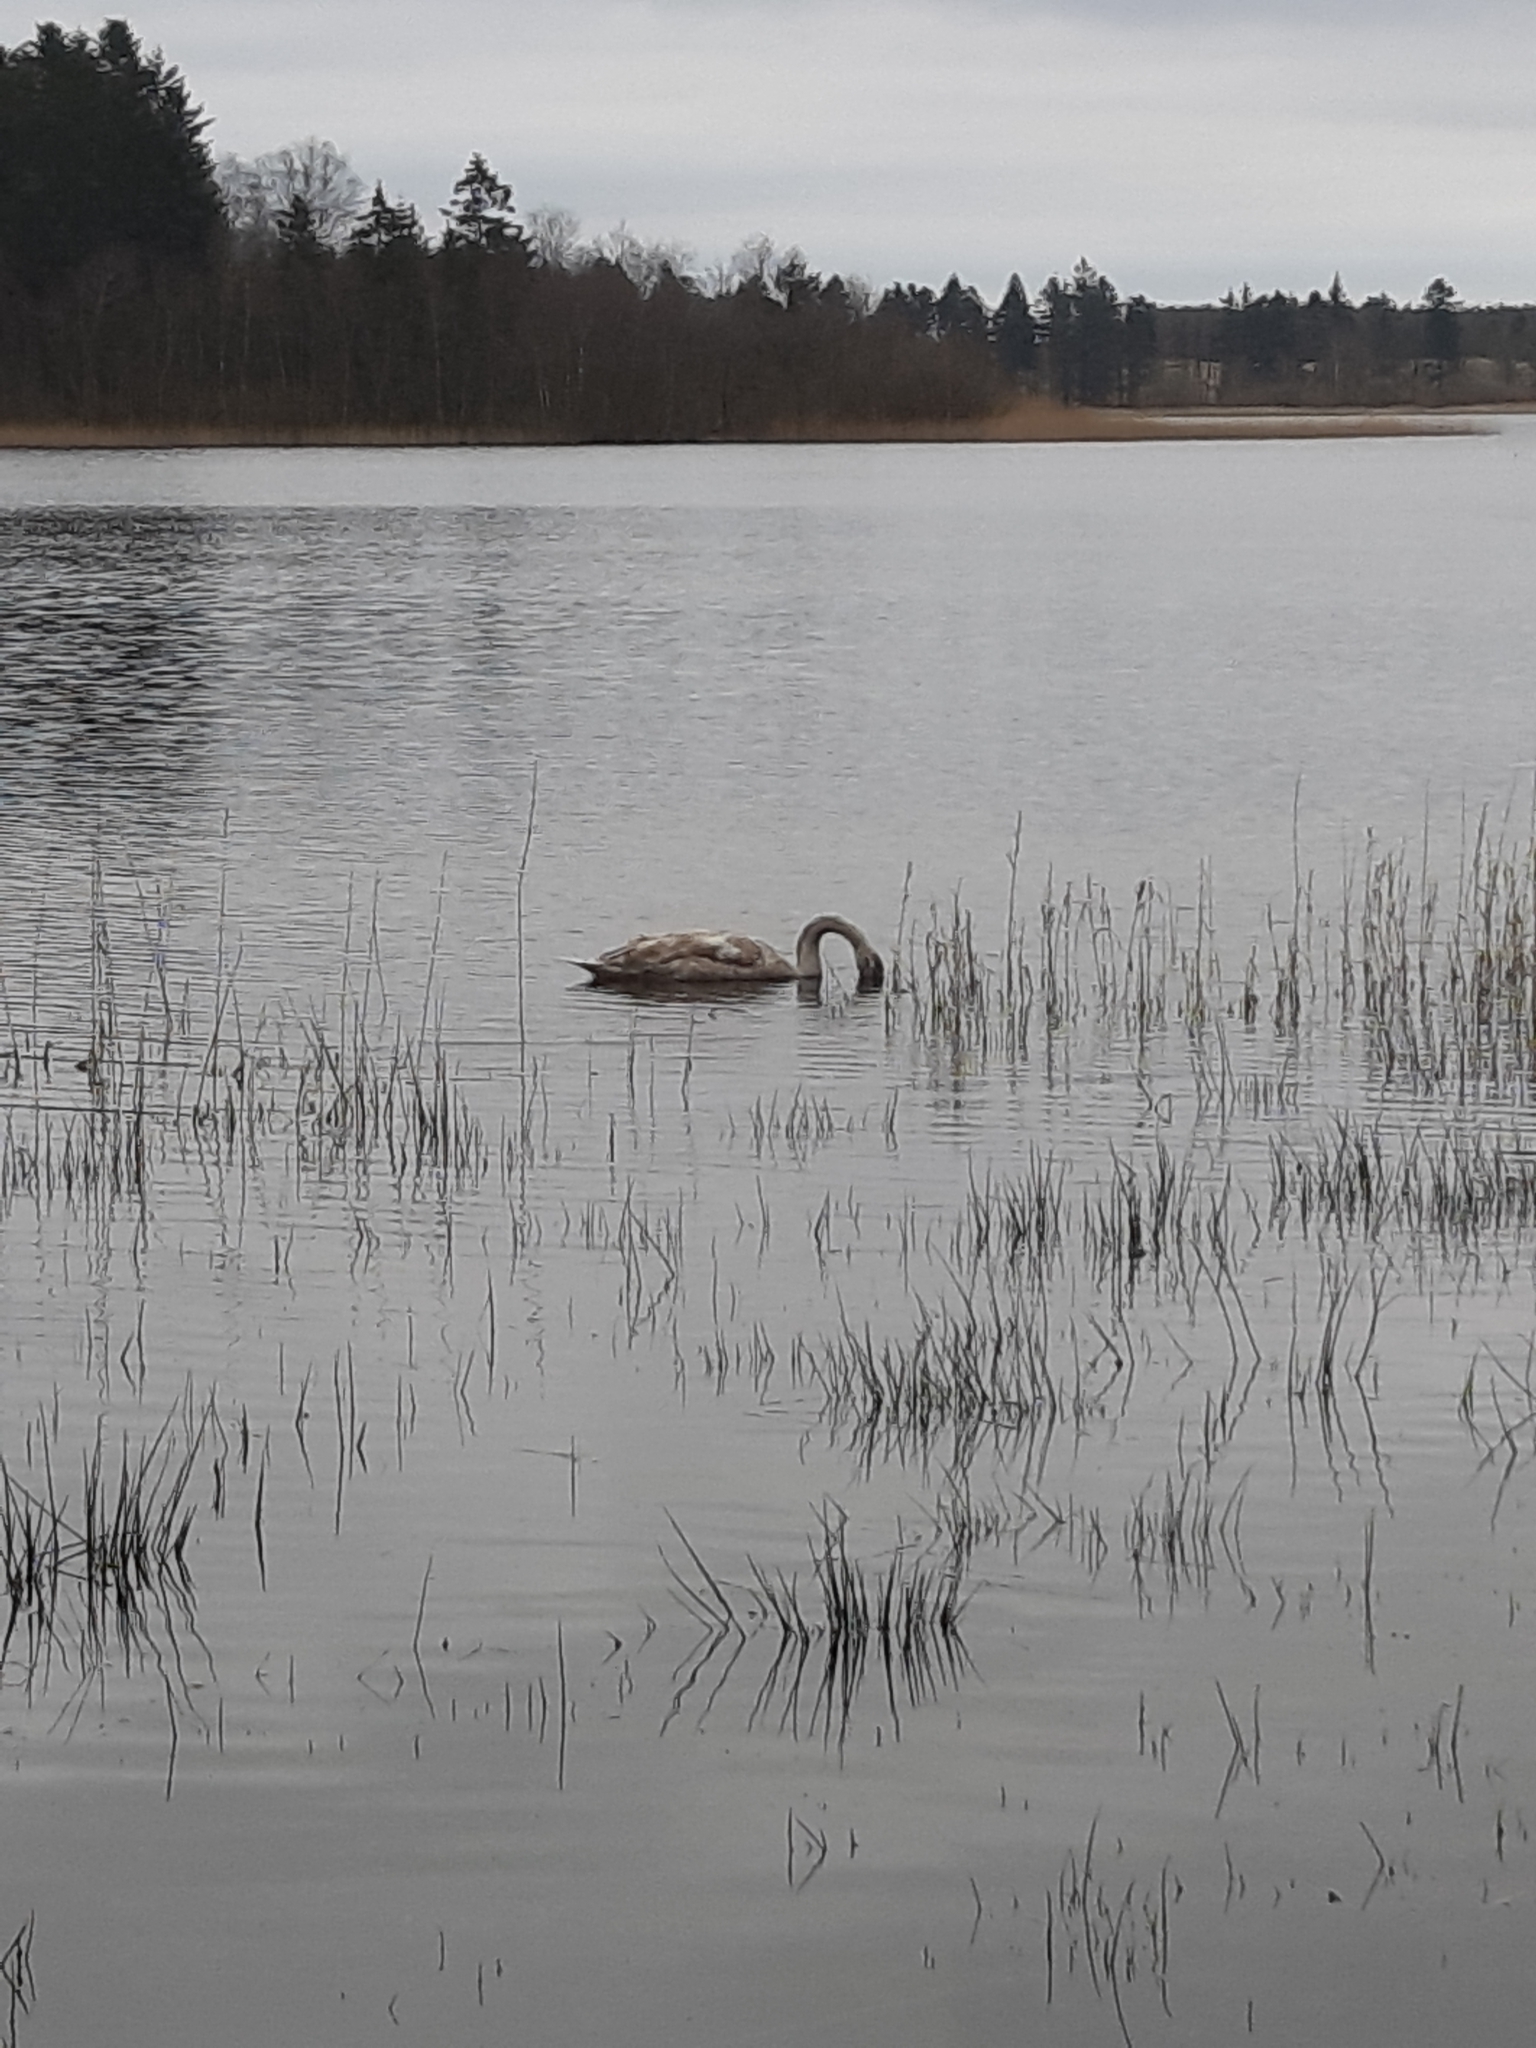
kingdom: Animalia
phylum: Chordata
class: Aves
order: Anseriformes
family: Anatidae
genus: Cygnus
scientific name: Cygnus olor
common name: Mute swan
